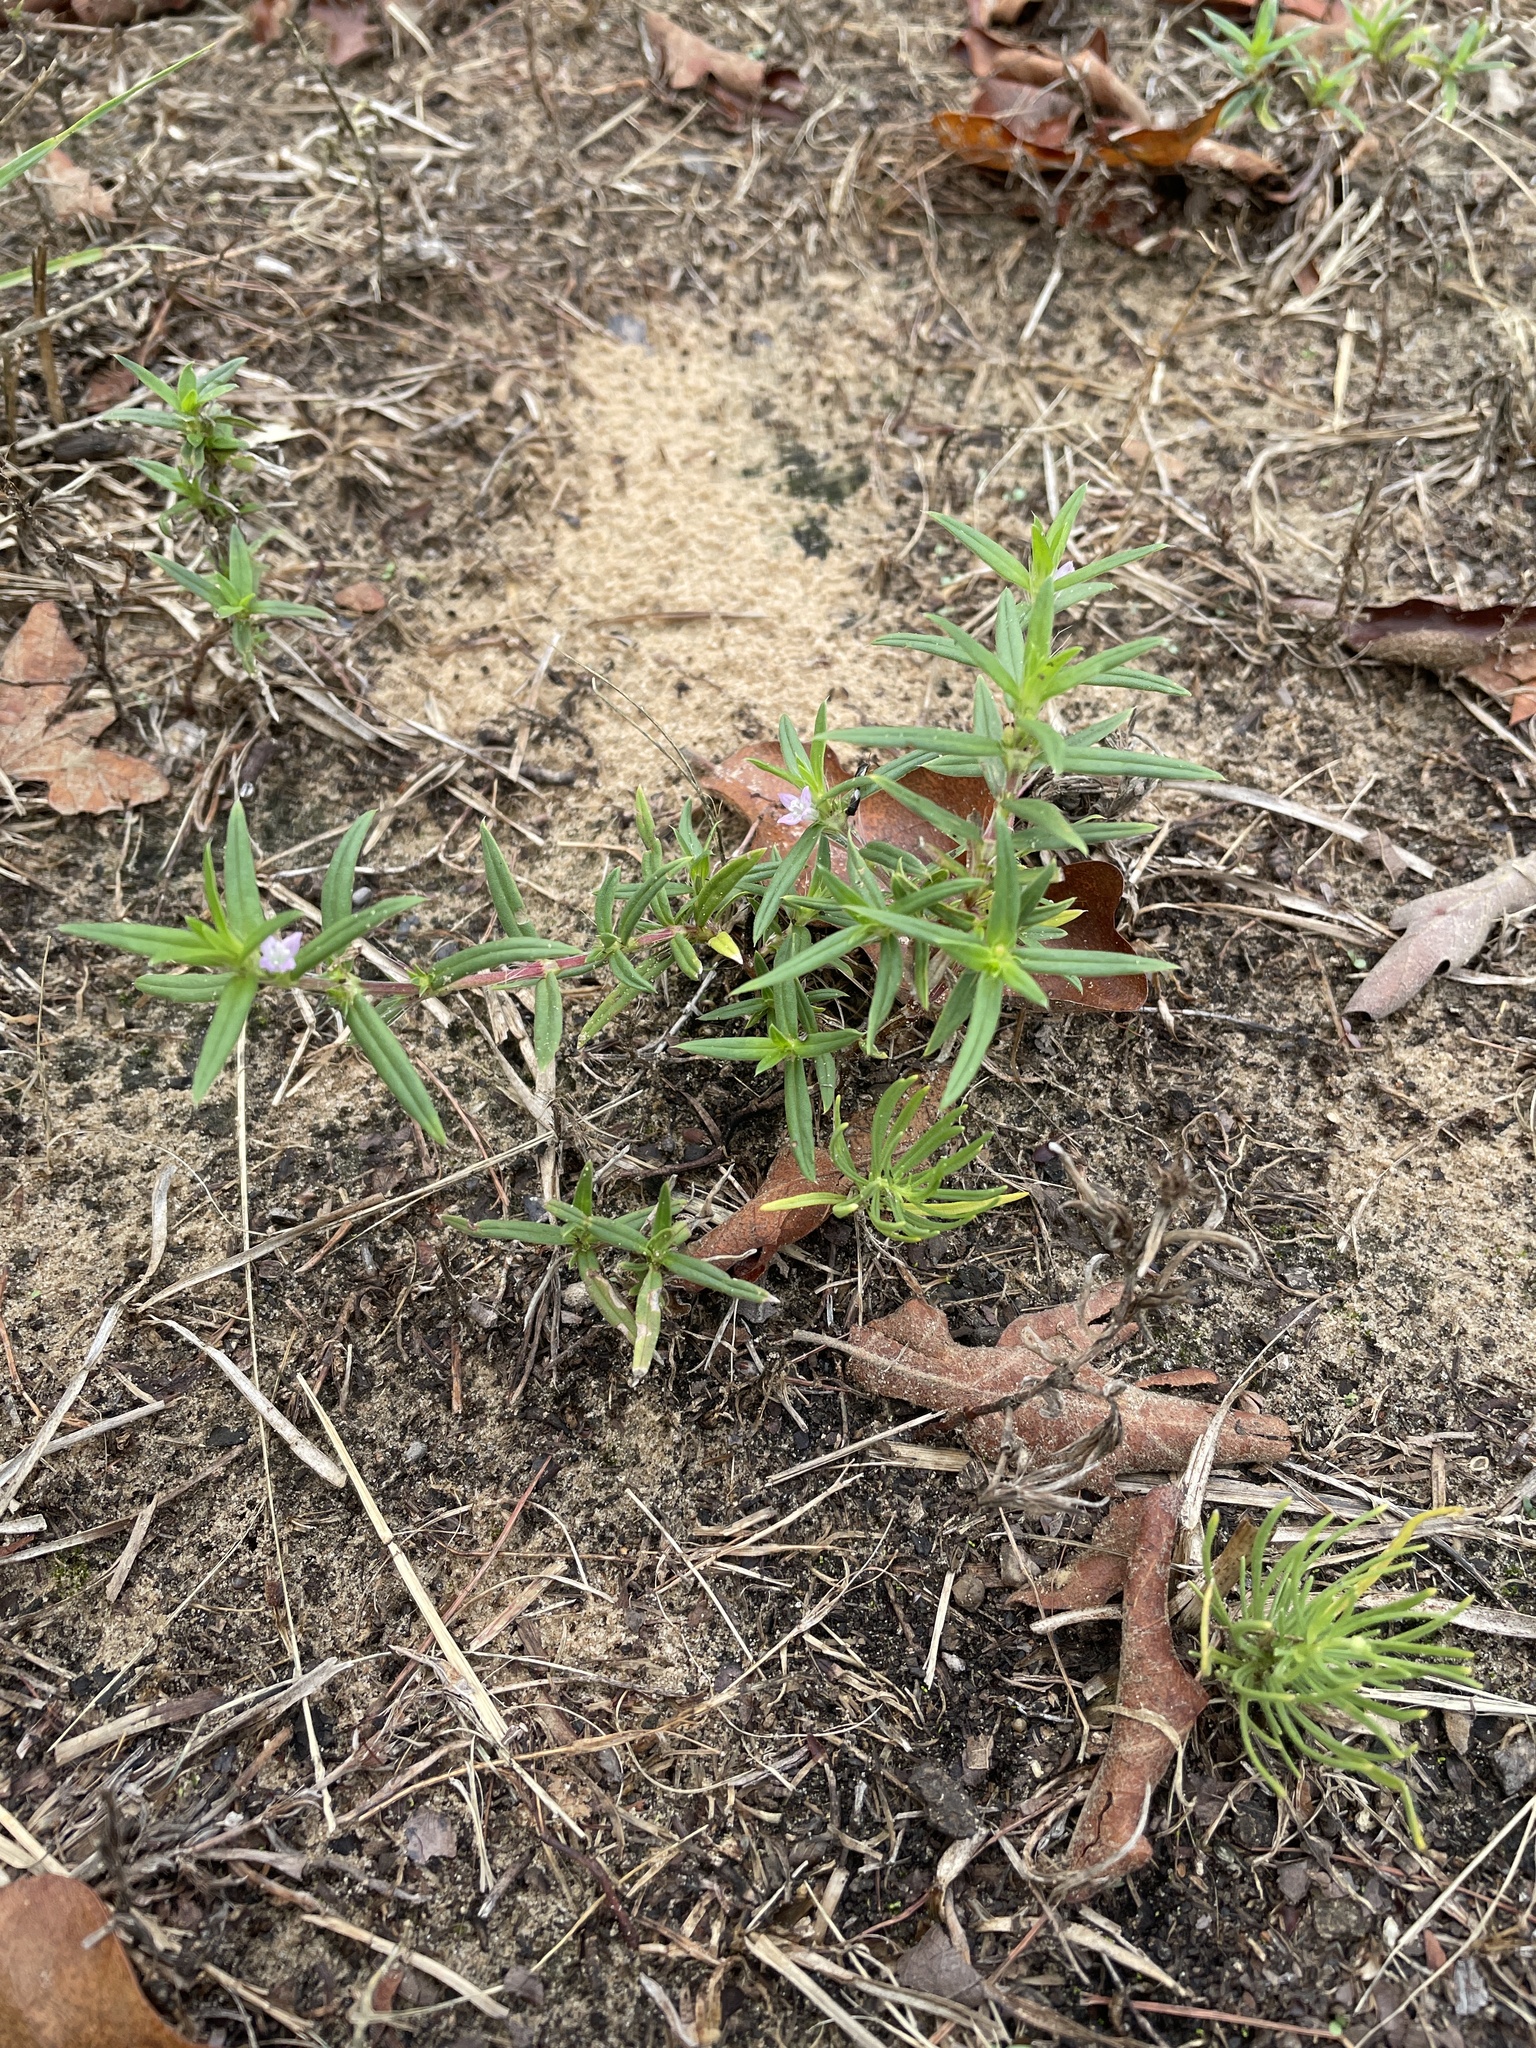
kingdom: Plantae
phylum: Tracheophyta
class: Magnoliopsida
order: Gentianales
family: Rubiaceae
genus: Hexasepalum
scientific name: Hexasepalum teres
